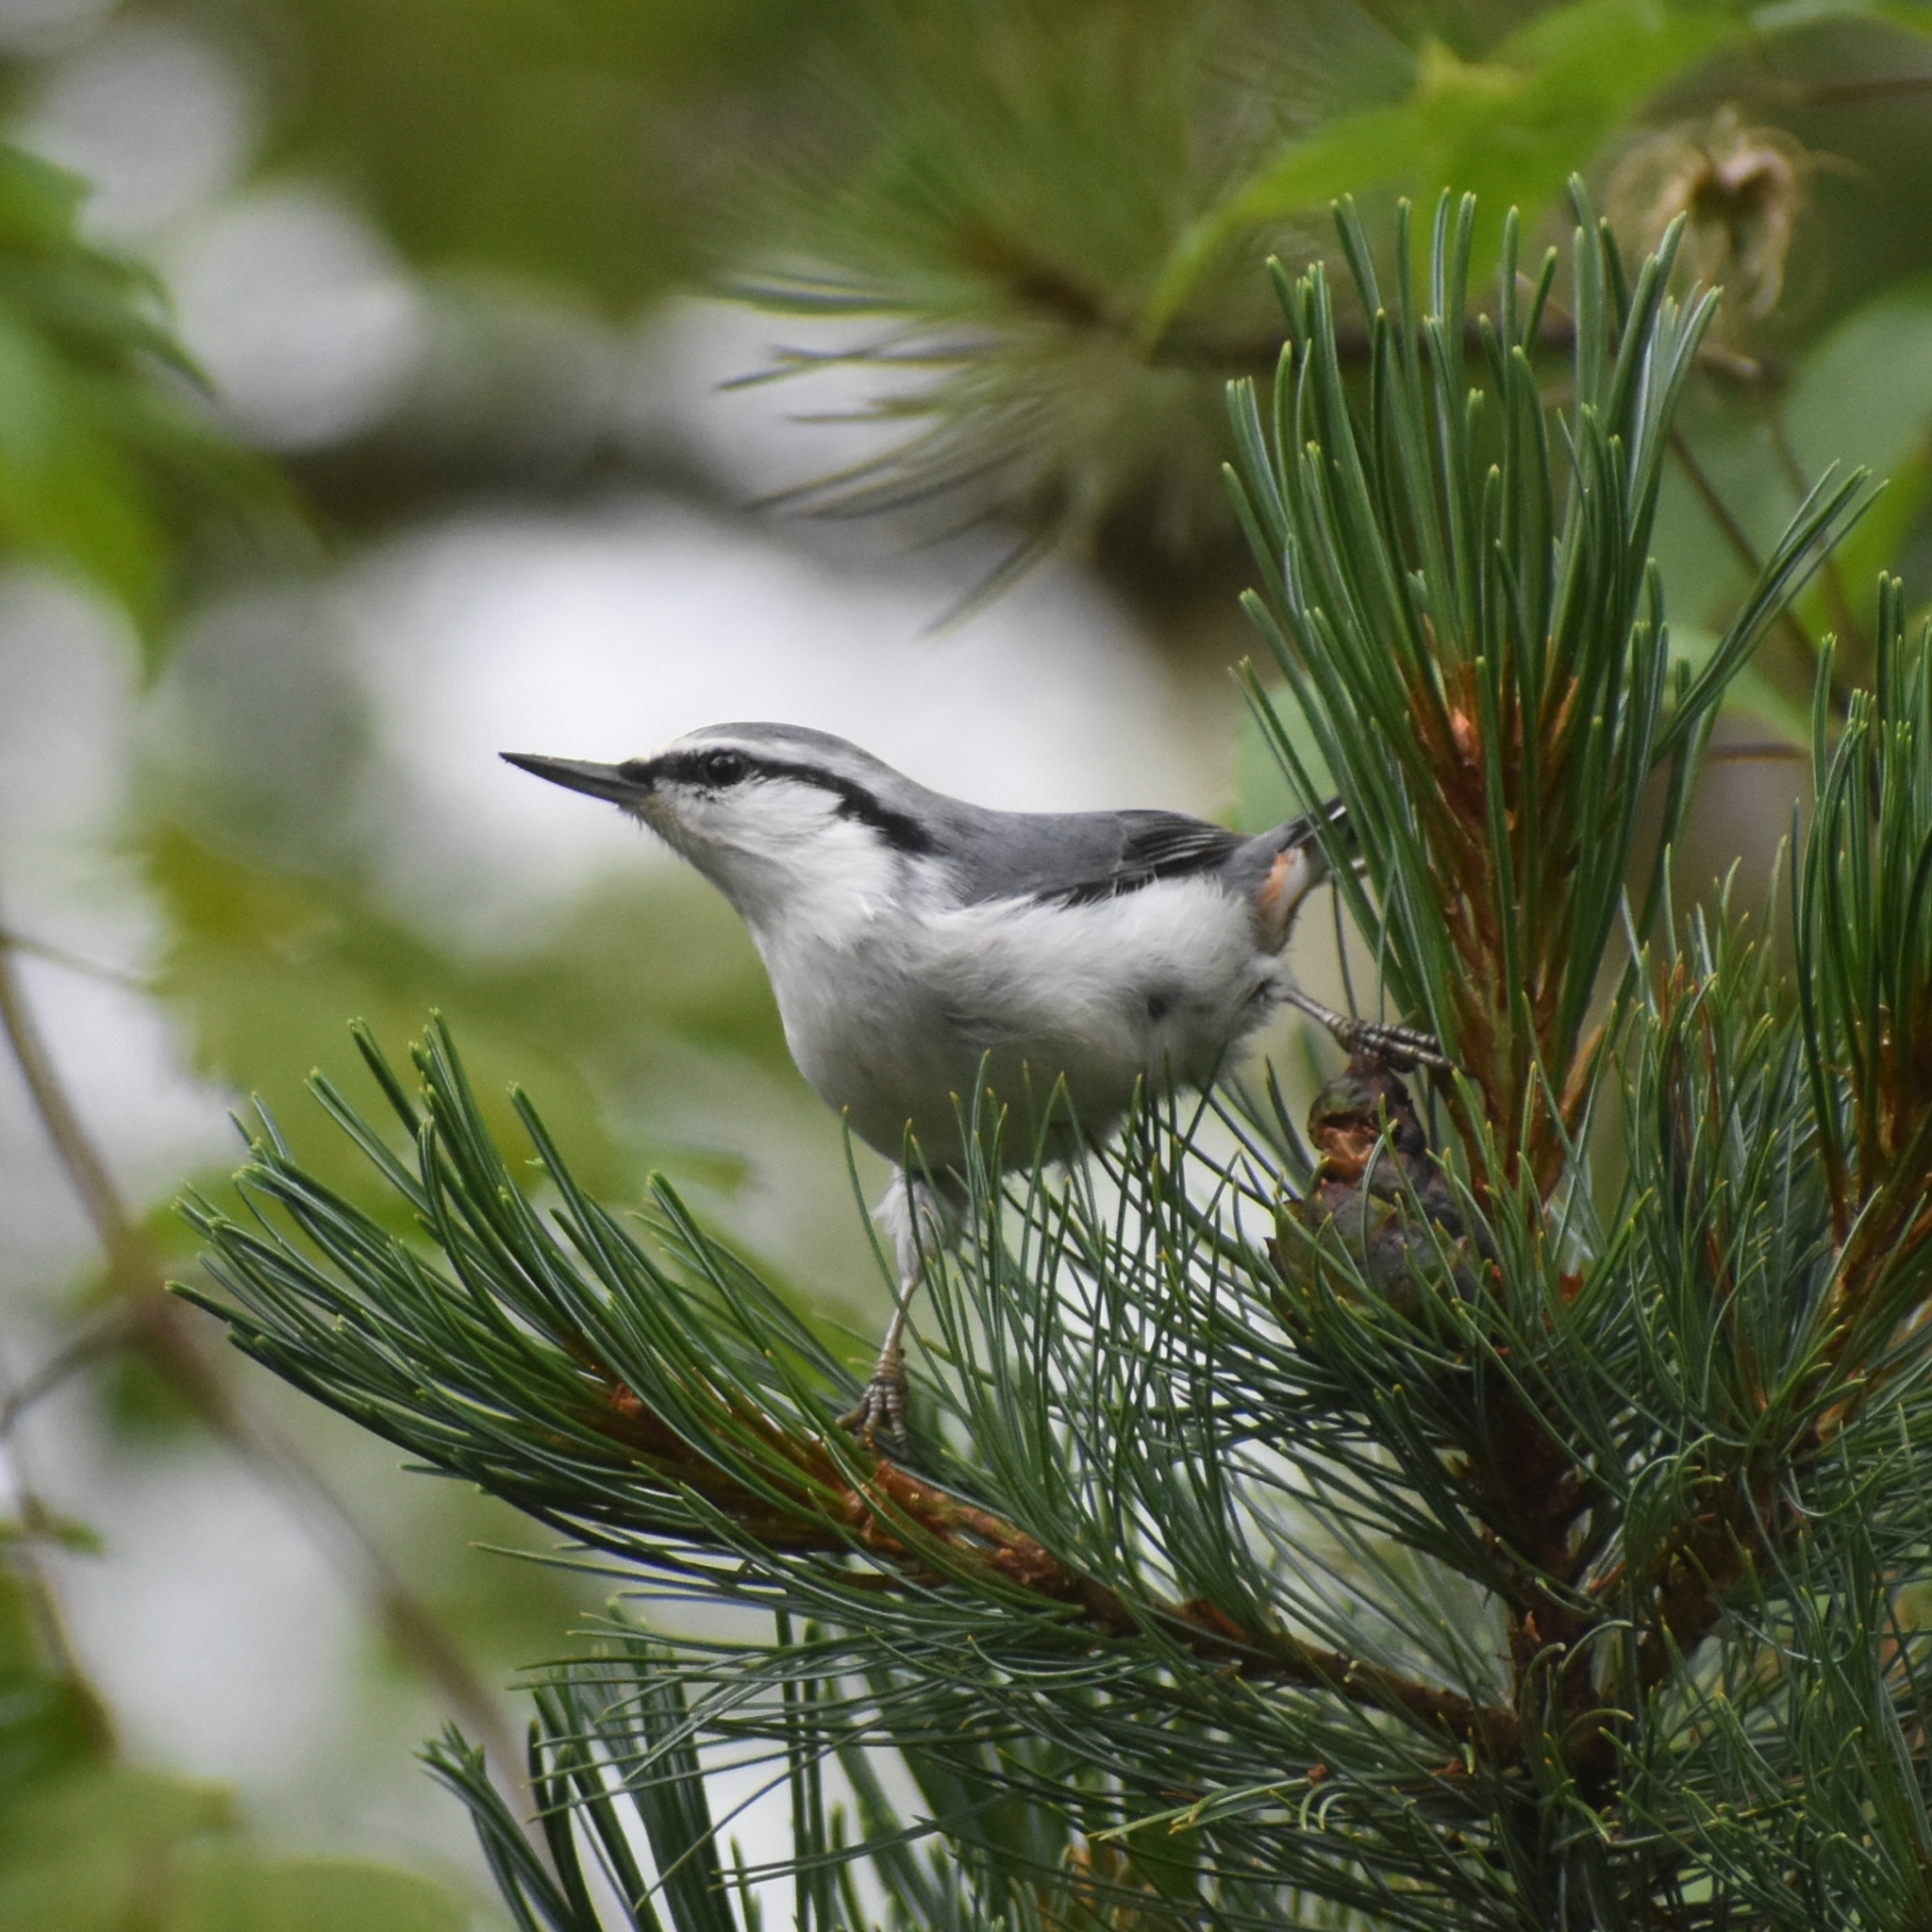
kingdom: Animalia
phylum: Chordata
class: Aves
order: Passeriformes
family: Sittidae
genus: Sitta
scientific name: Sitta europaea
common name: Eurasian nuthatch
